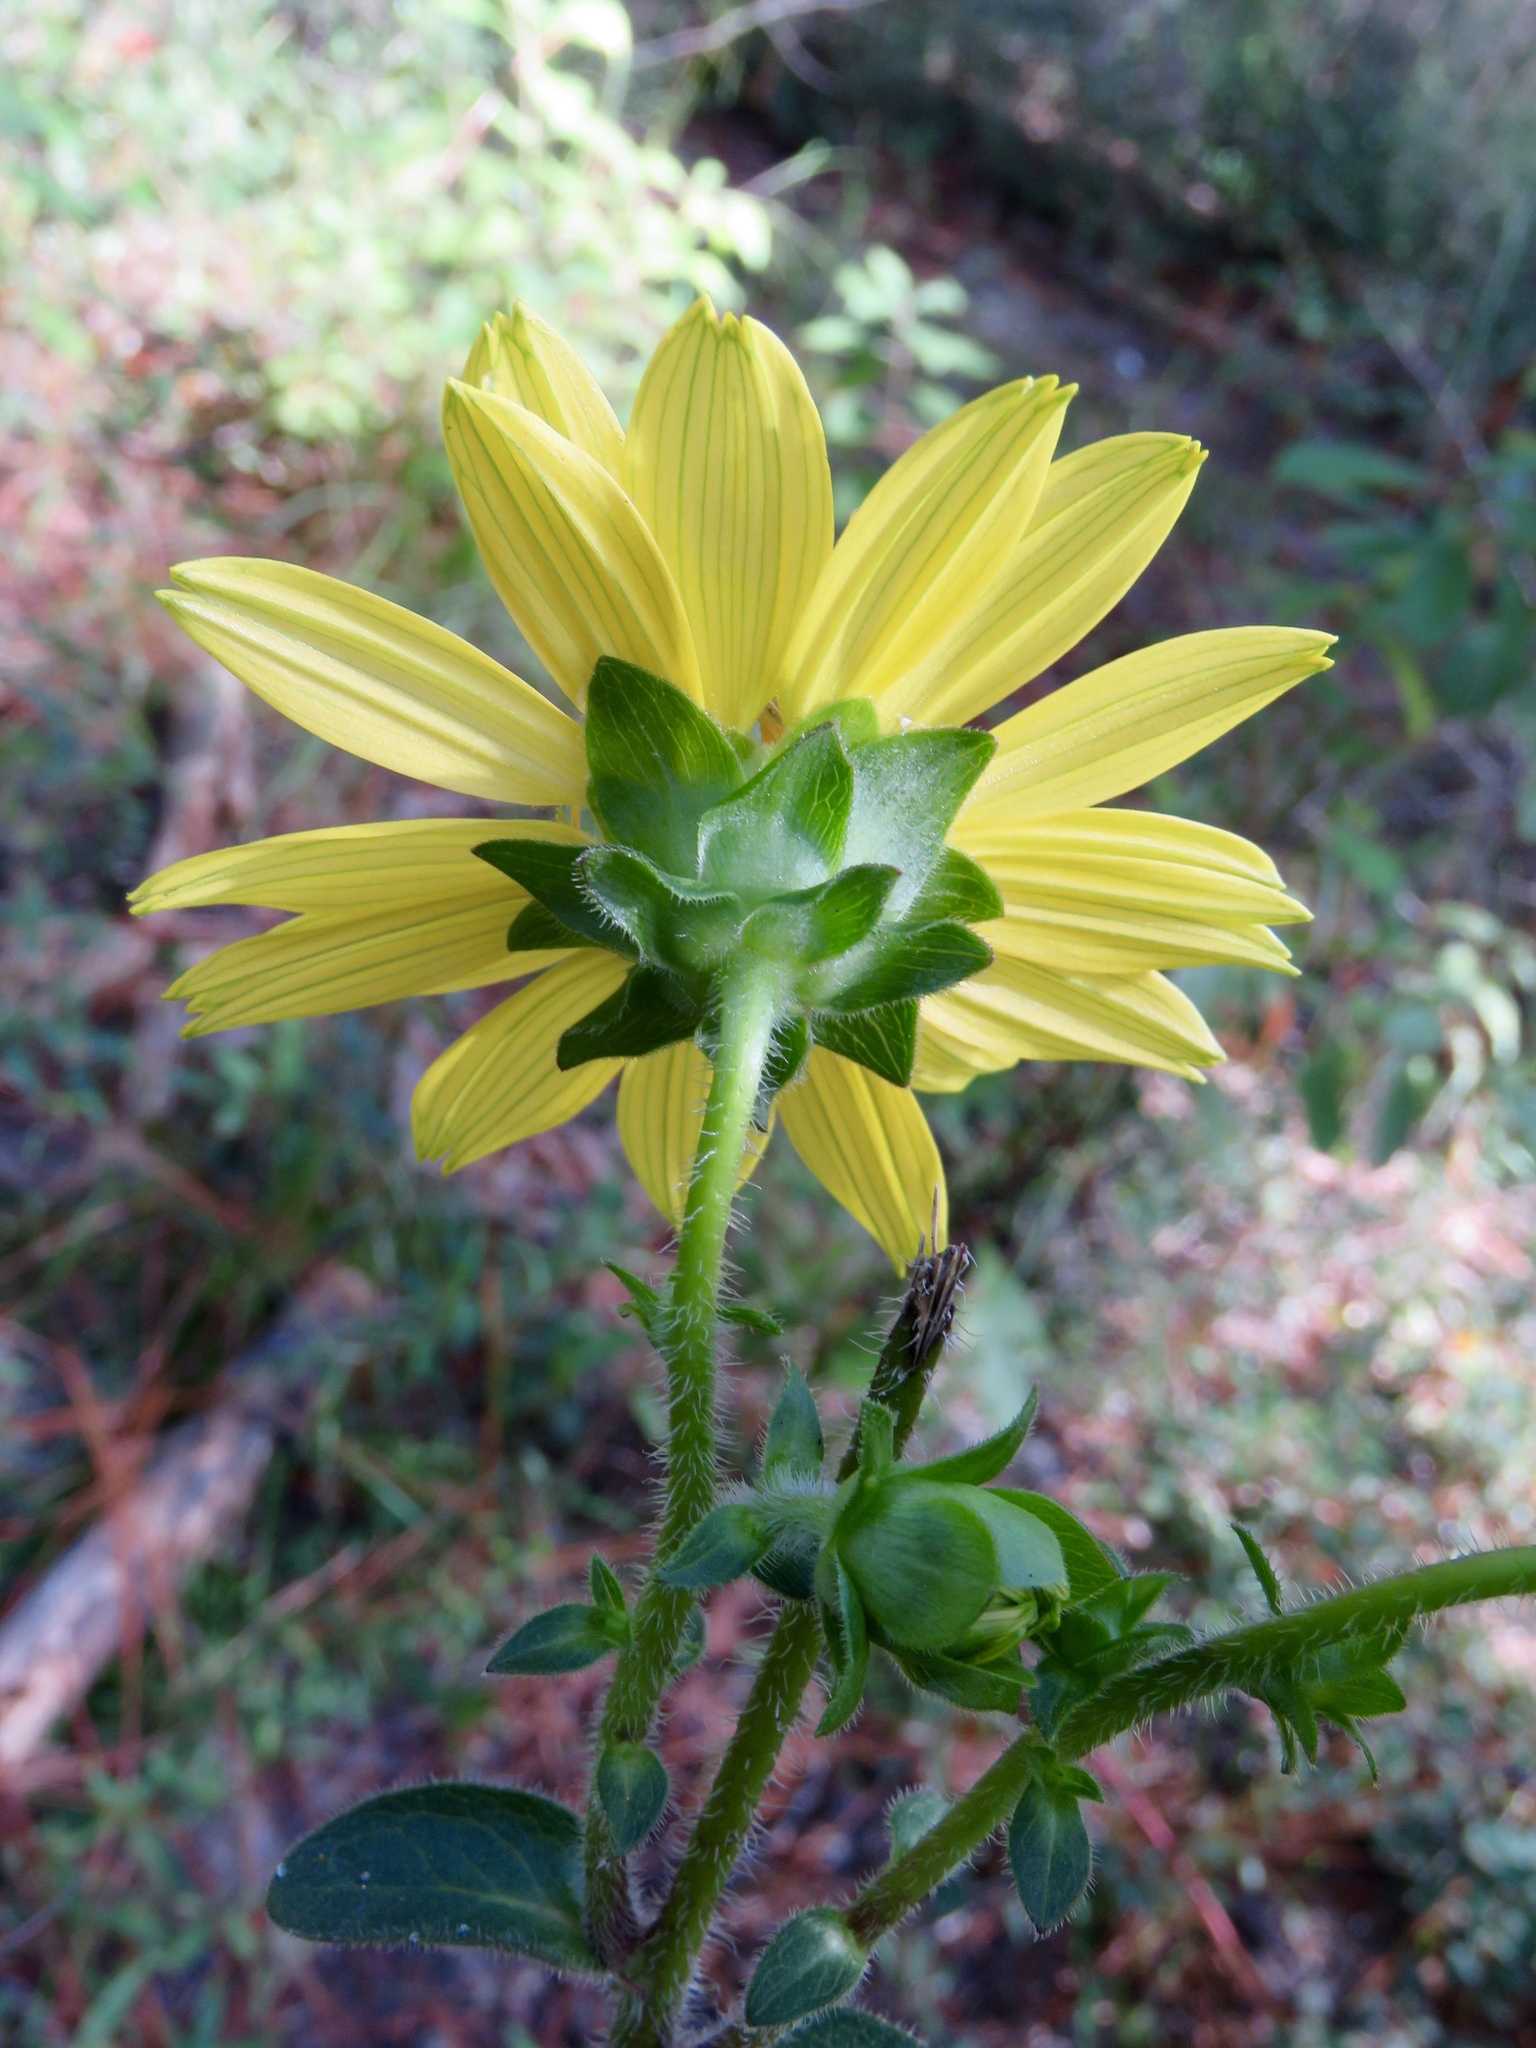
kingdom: Plantae
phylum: Tracheophyta
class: Magnoliopsida
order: Asterales
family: Asteraceae
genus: Silphium
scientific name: Silphium radula
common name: Roughleaf rosinweed
